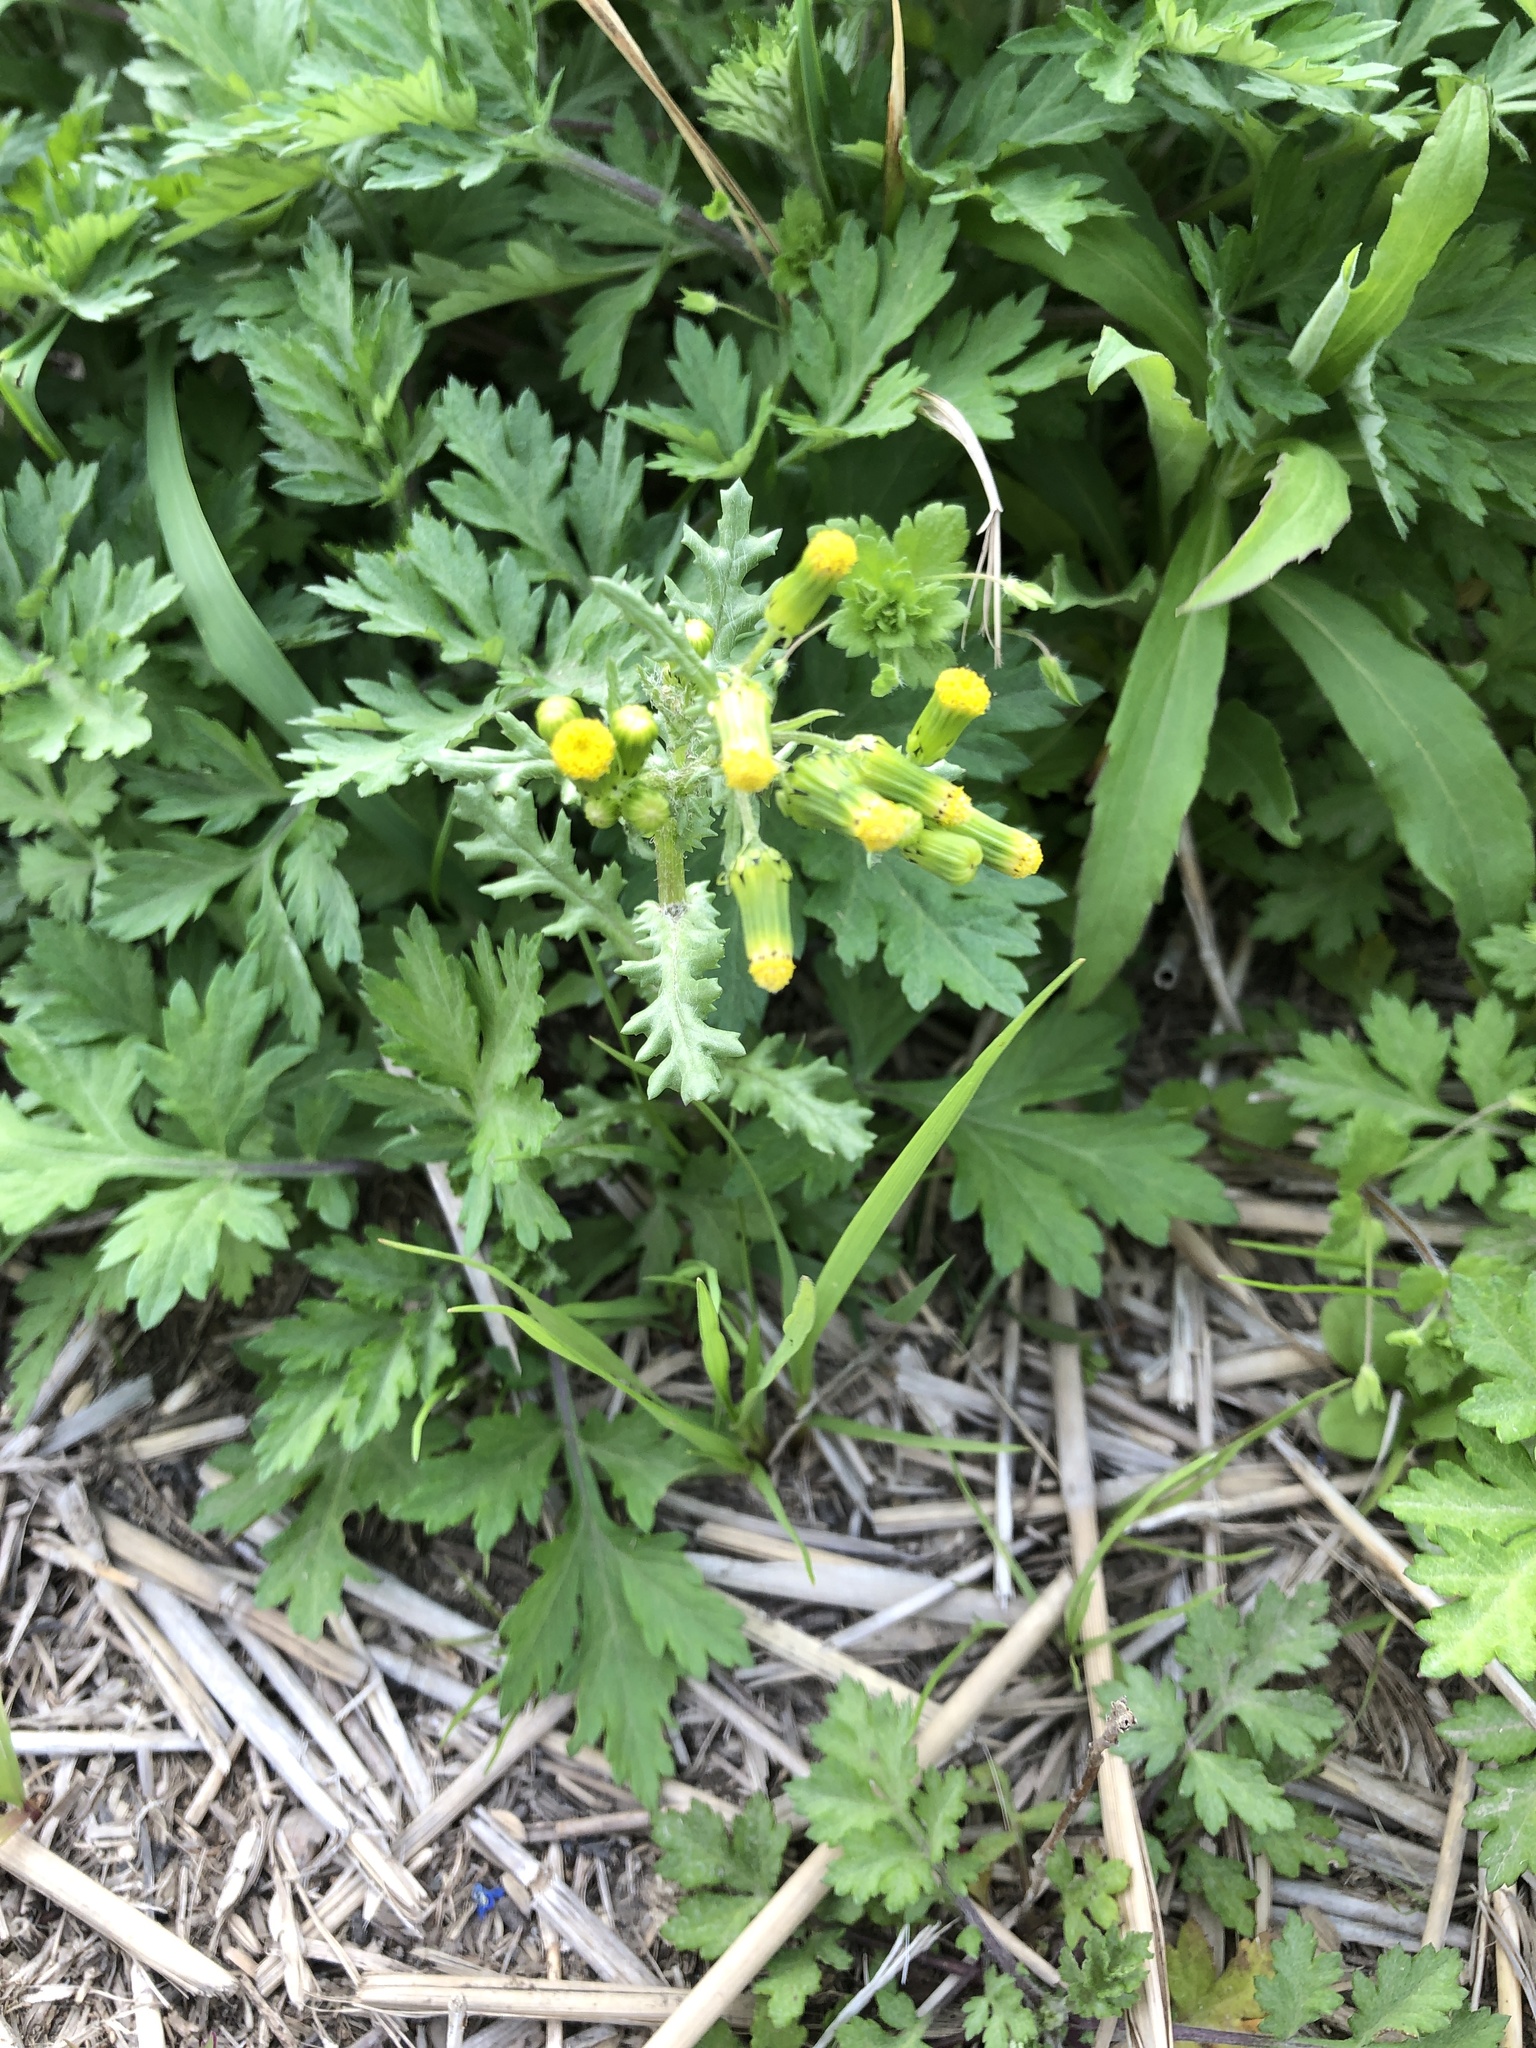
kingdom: Plantae
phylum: Tracheophyta
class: Magnoliopsida
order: Asterales
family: Asteraceae
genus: Senecio
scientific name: Senecio vulgaris
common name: Old-man-in-the-spring
